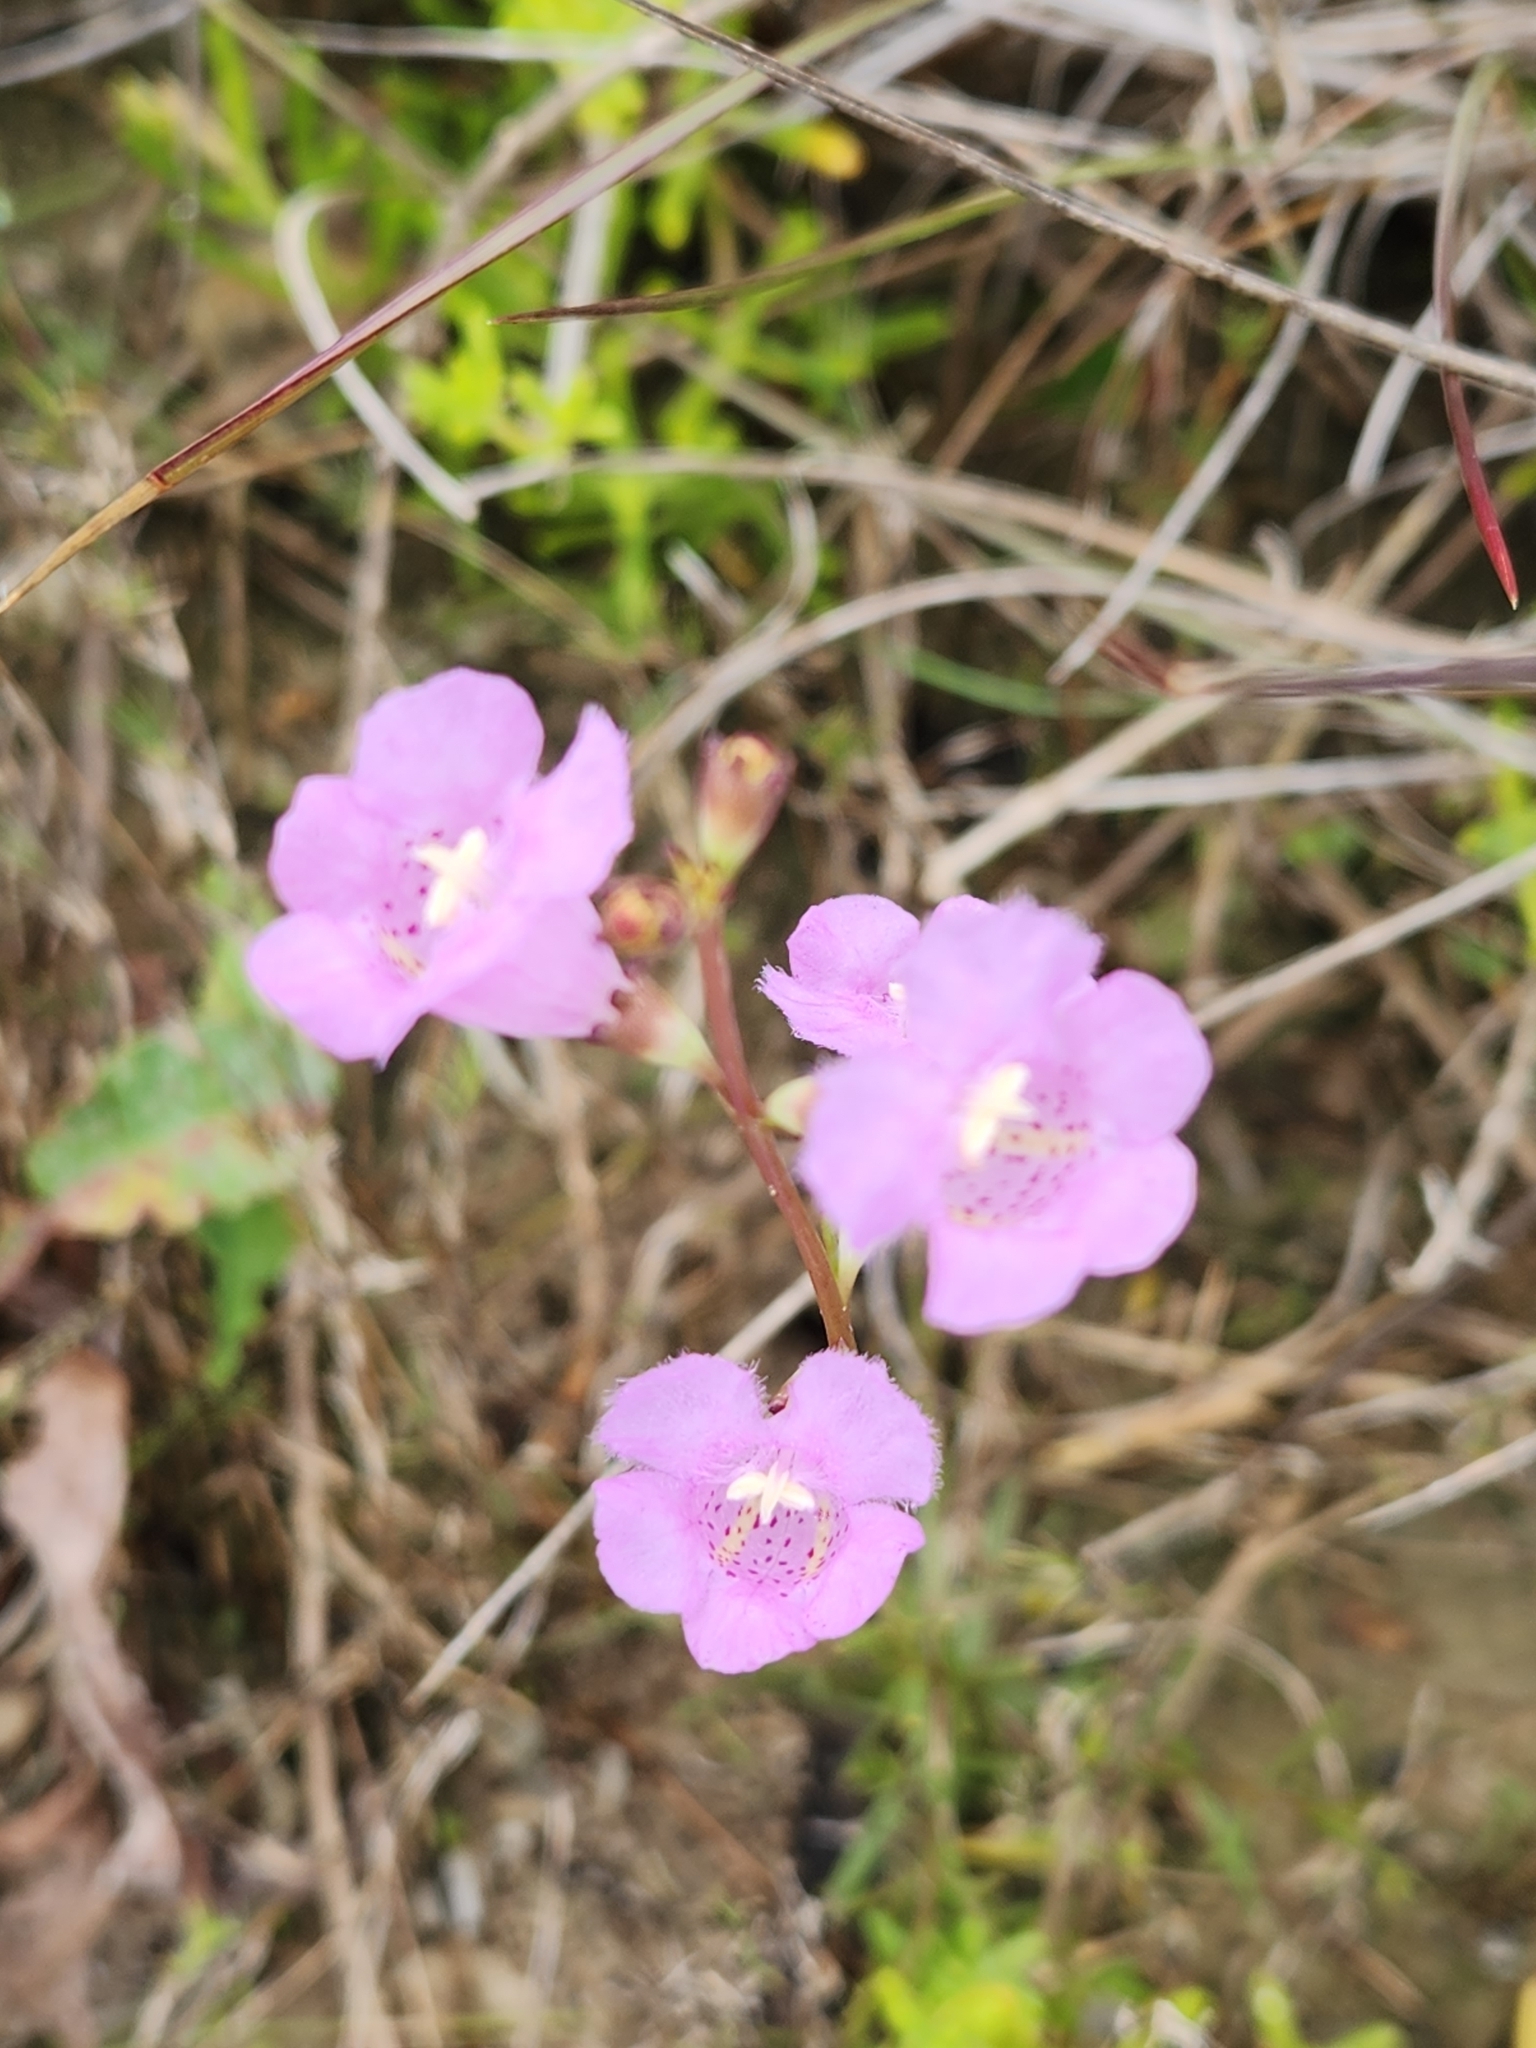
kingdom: Plantae
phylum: Tracheophyta
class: Magnoliopsida
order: Lamiales
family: Orobanchaceae
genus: Agalinis
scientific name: Agalinis maritima
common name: Saltmarsh agalinis
